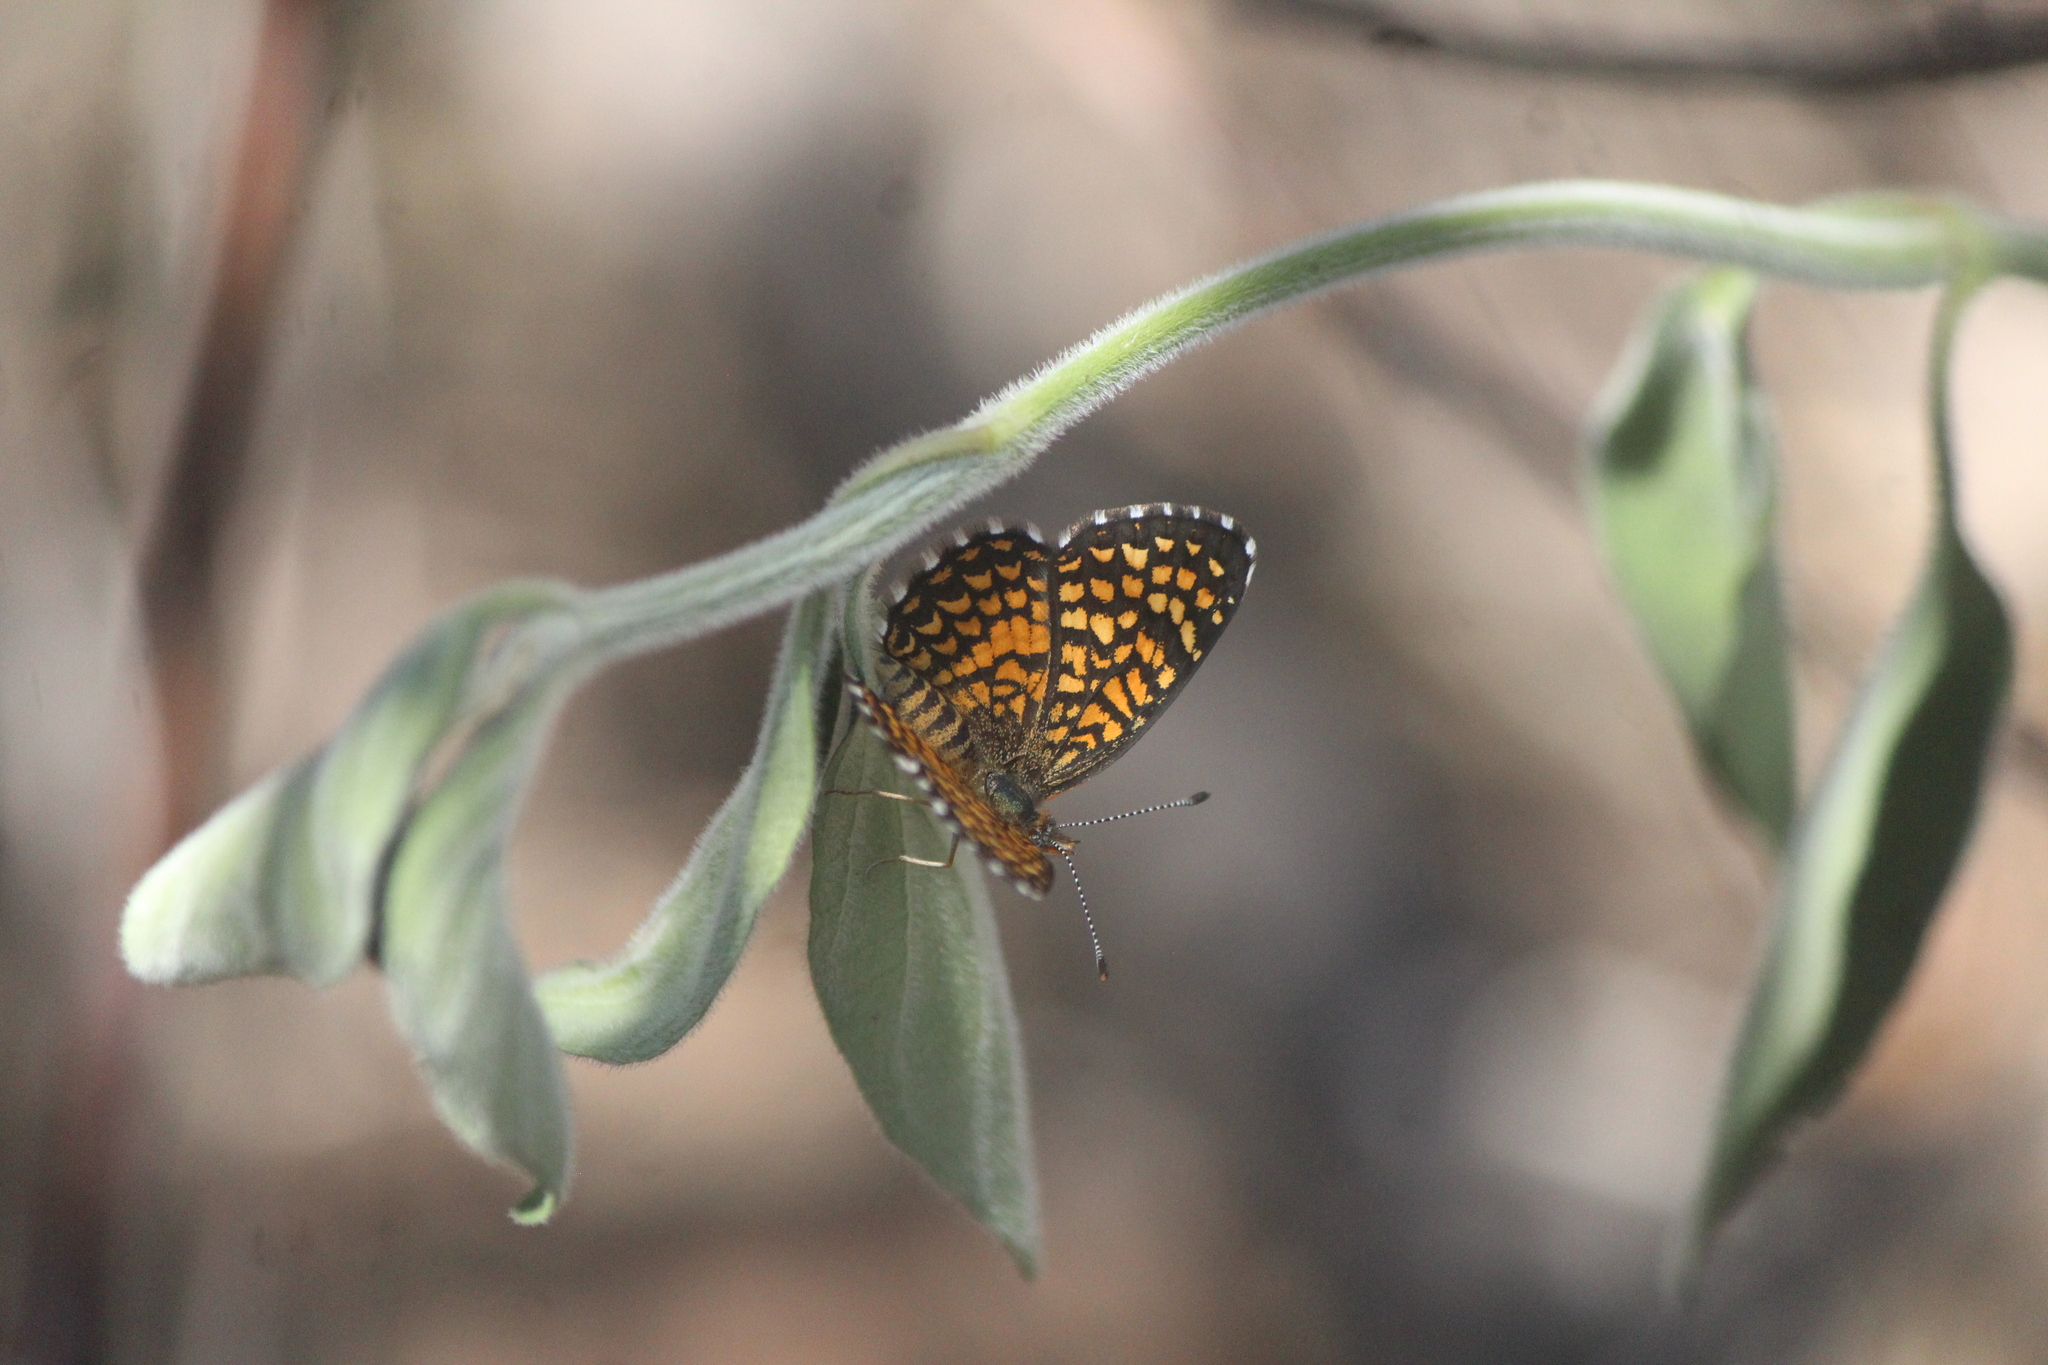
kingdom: Animalia
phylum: Arthropoda
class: Insecta
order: Lepidoptera
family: Nymphalidae
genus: Texola
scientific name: Texola elada
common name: Elada checkerspot
